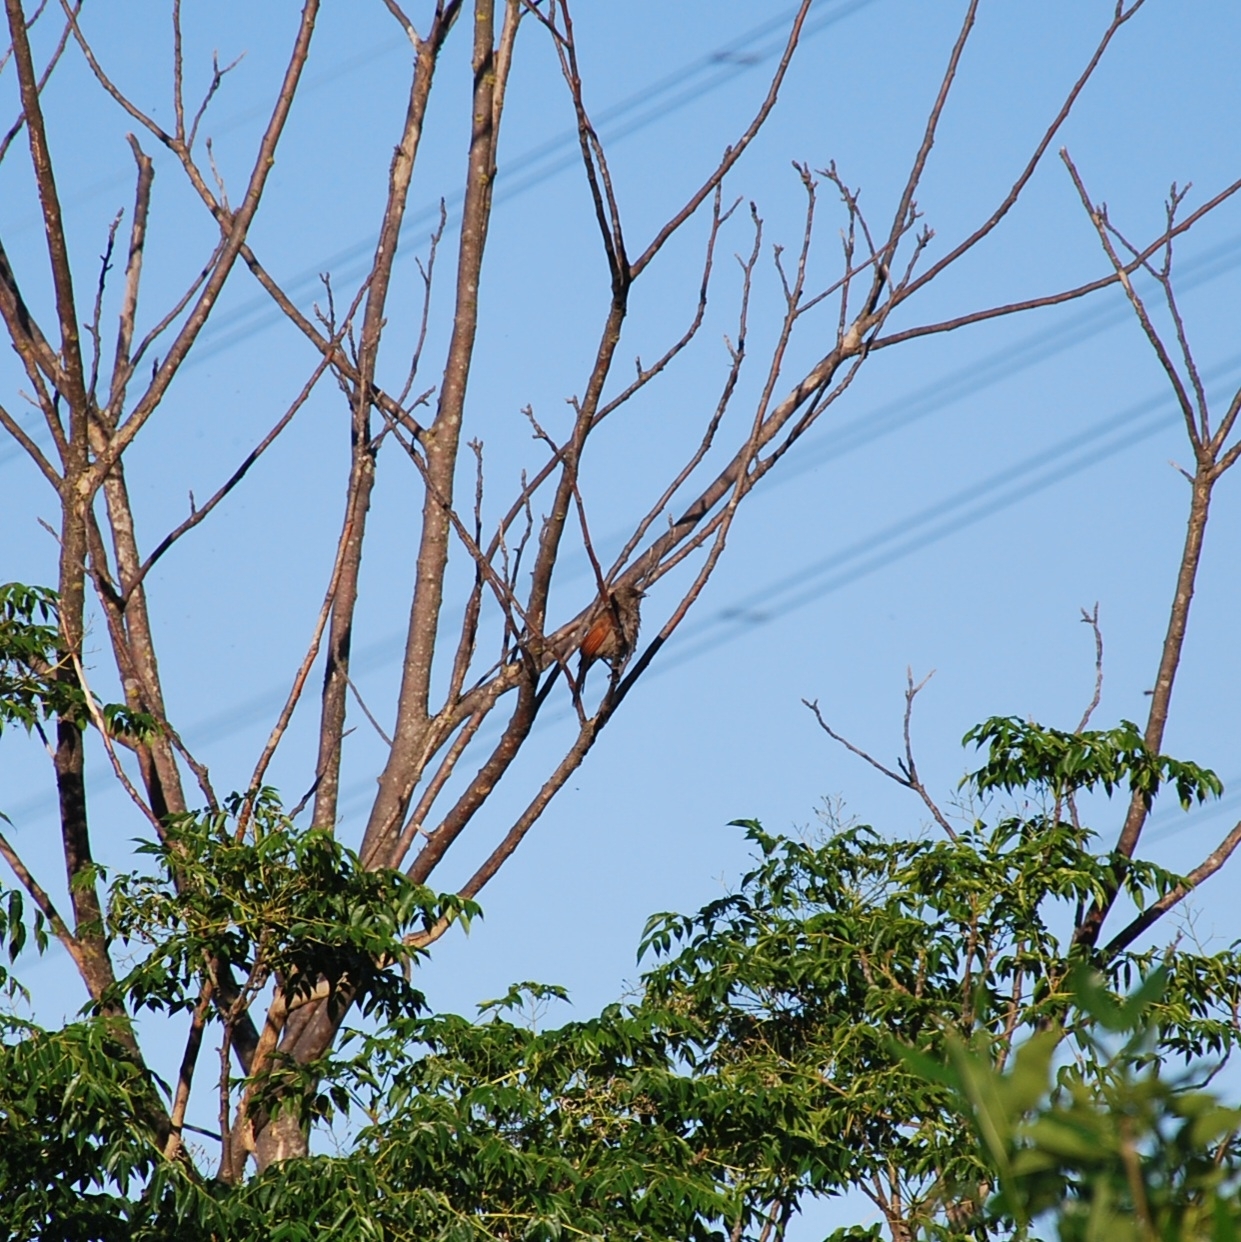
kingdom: Animalia
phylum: Chordata
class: Aves
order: Passeriformes
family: Icteridae
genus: Agelaioides
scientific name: Agelaioides badius
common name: Baywing
